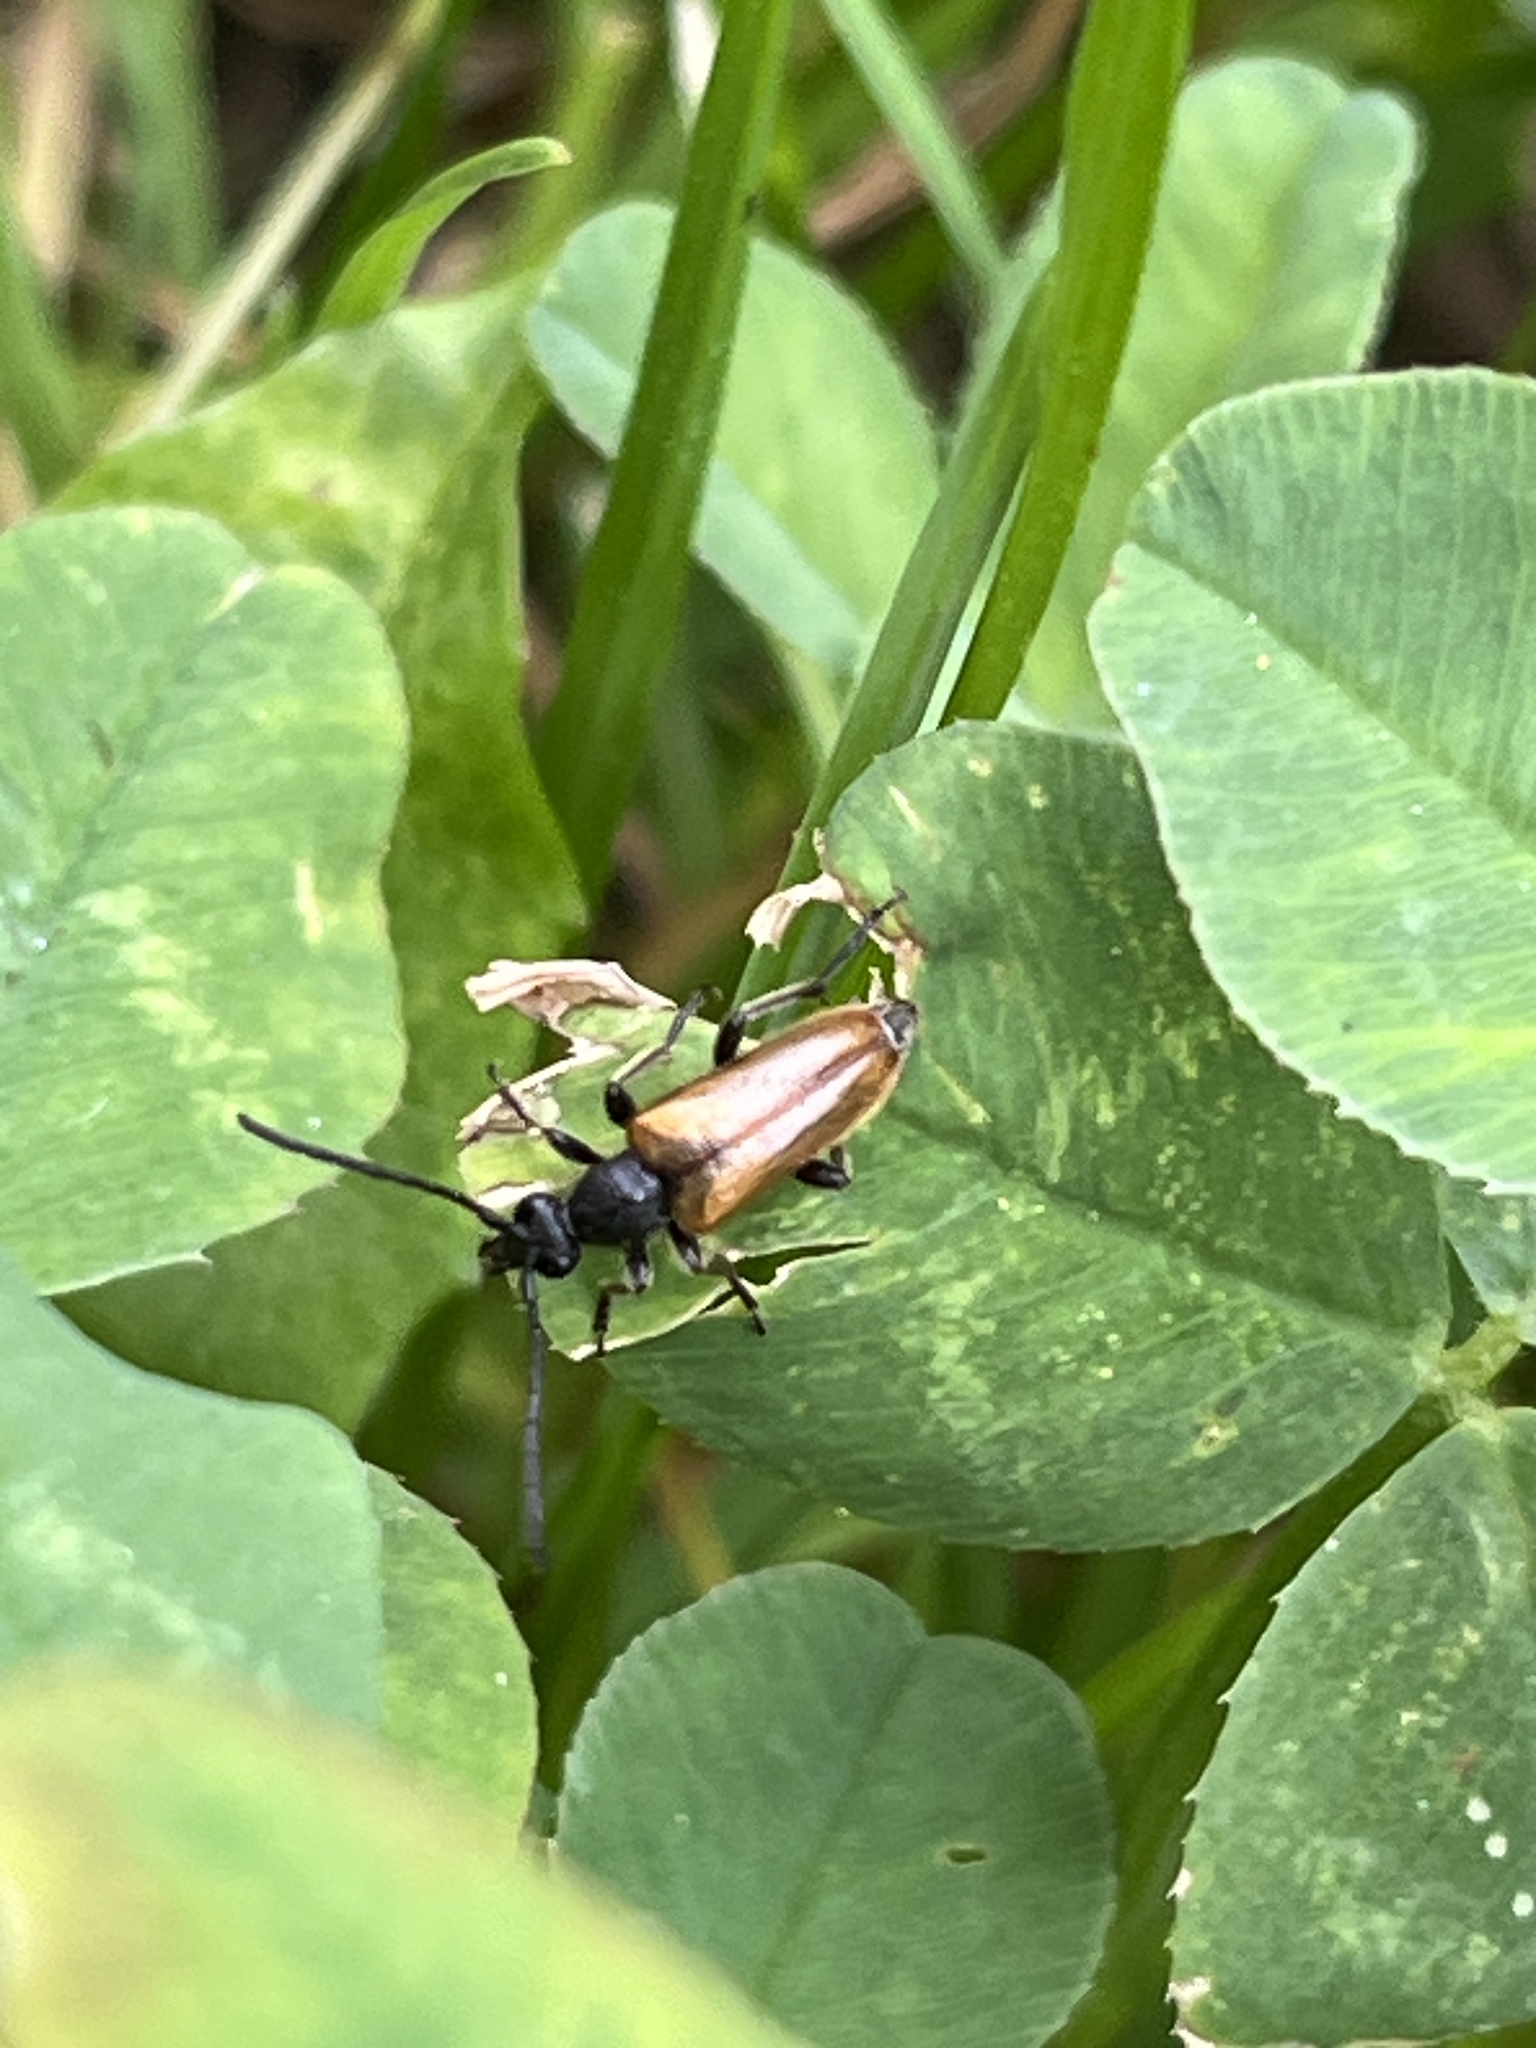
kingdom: Animalia
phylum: Arthropoda
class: Insecta
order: Coleoptera
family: Cerambycidae
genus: Pseudovadonia
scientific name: Pseudovadonia livida
